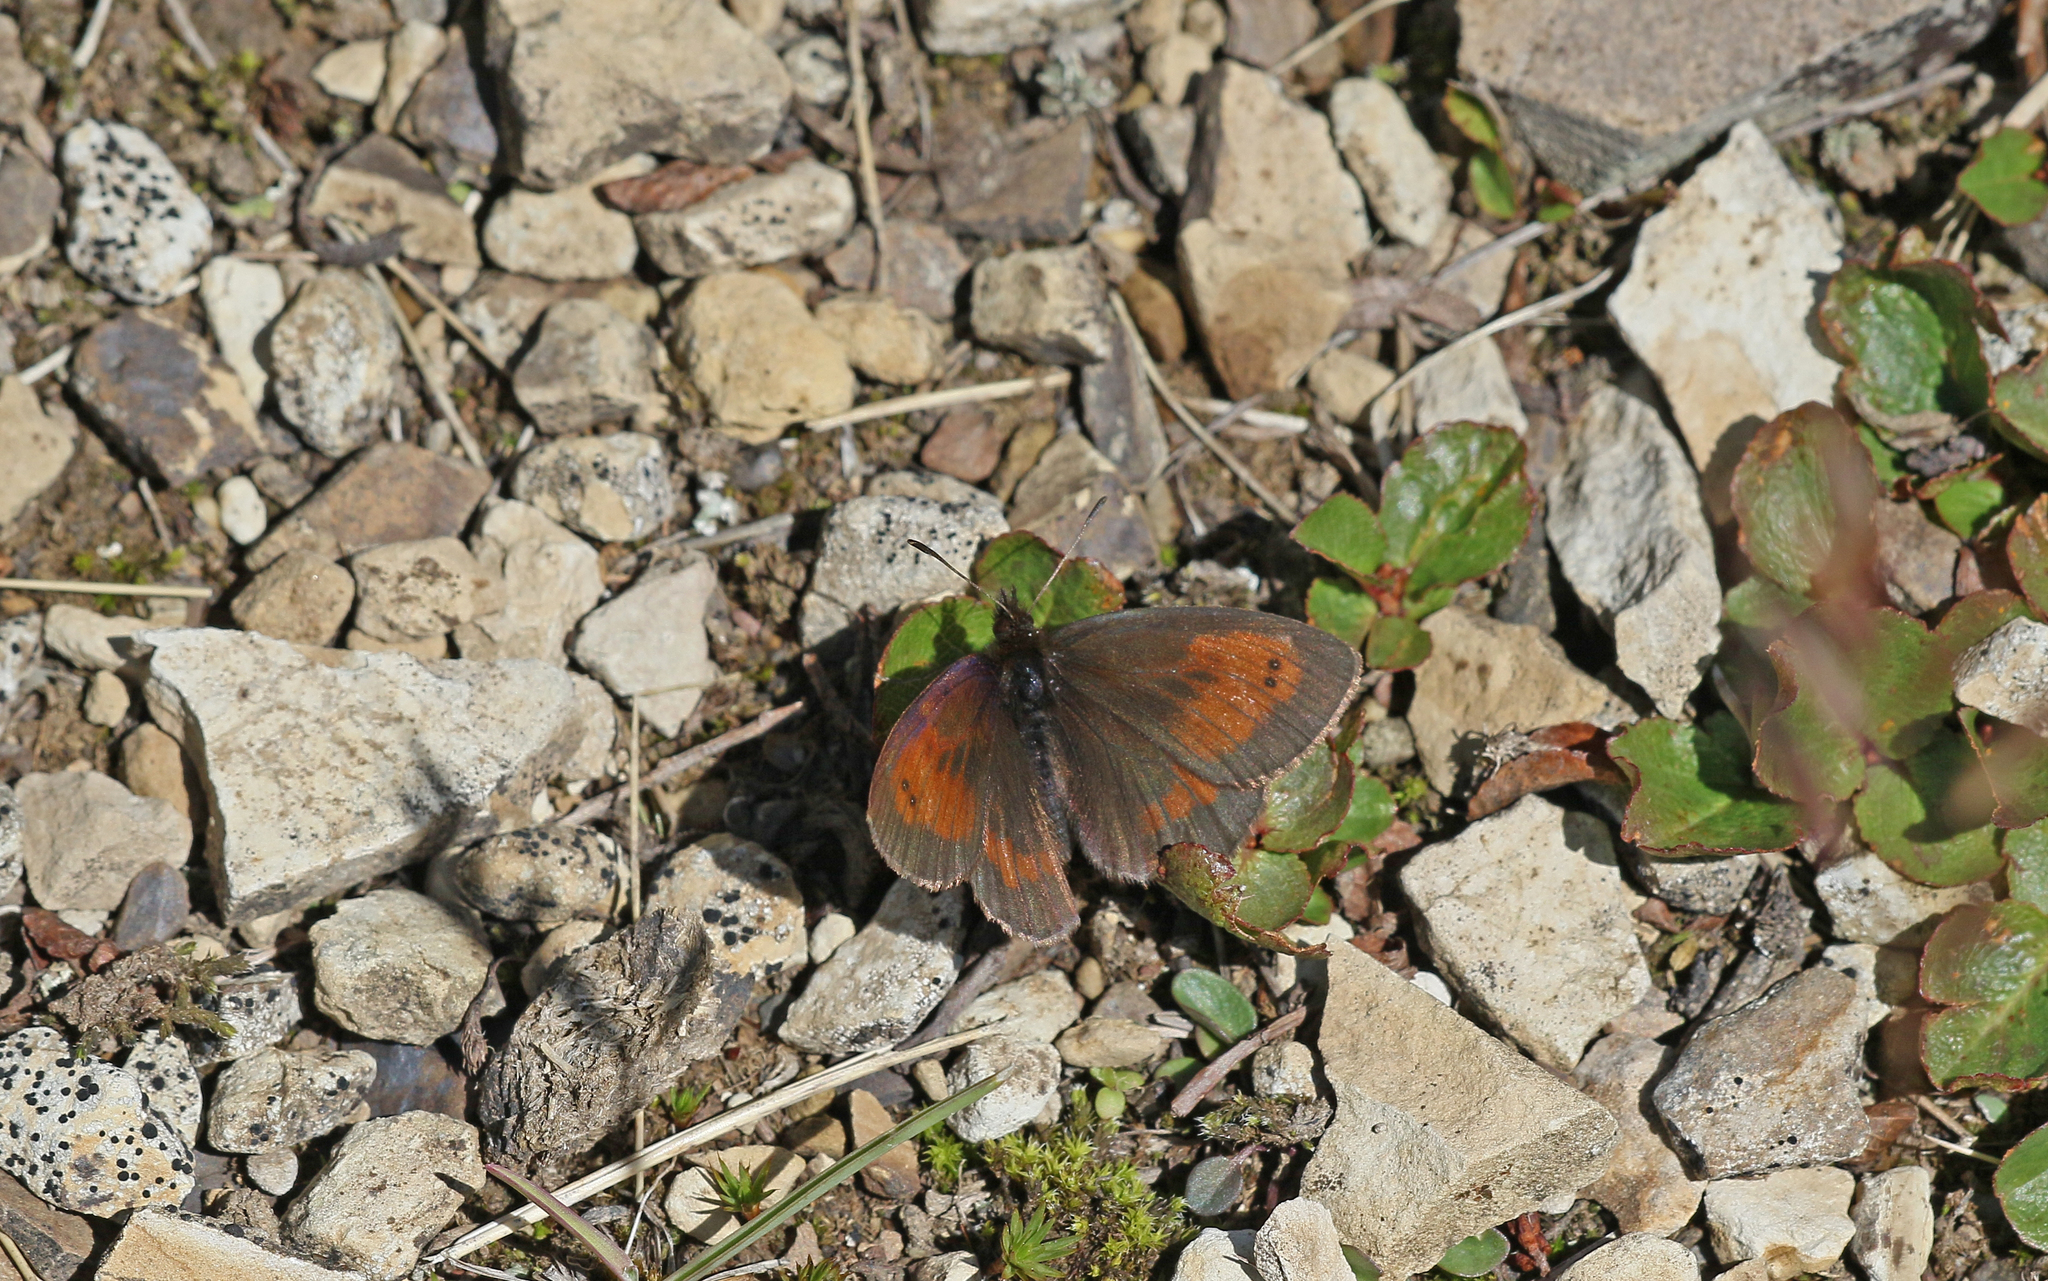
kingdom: Animalia
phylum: Arthropoda
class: Insecta
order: Lepidoptera
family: Nymphalidae
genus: Erebia
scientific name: Erebia mnestra
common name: Mnestra’s ringlet
